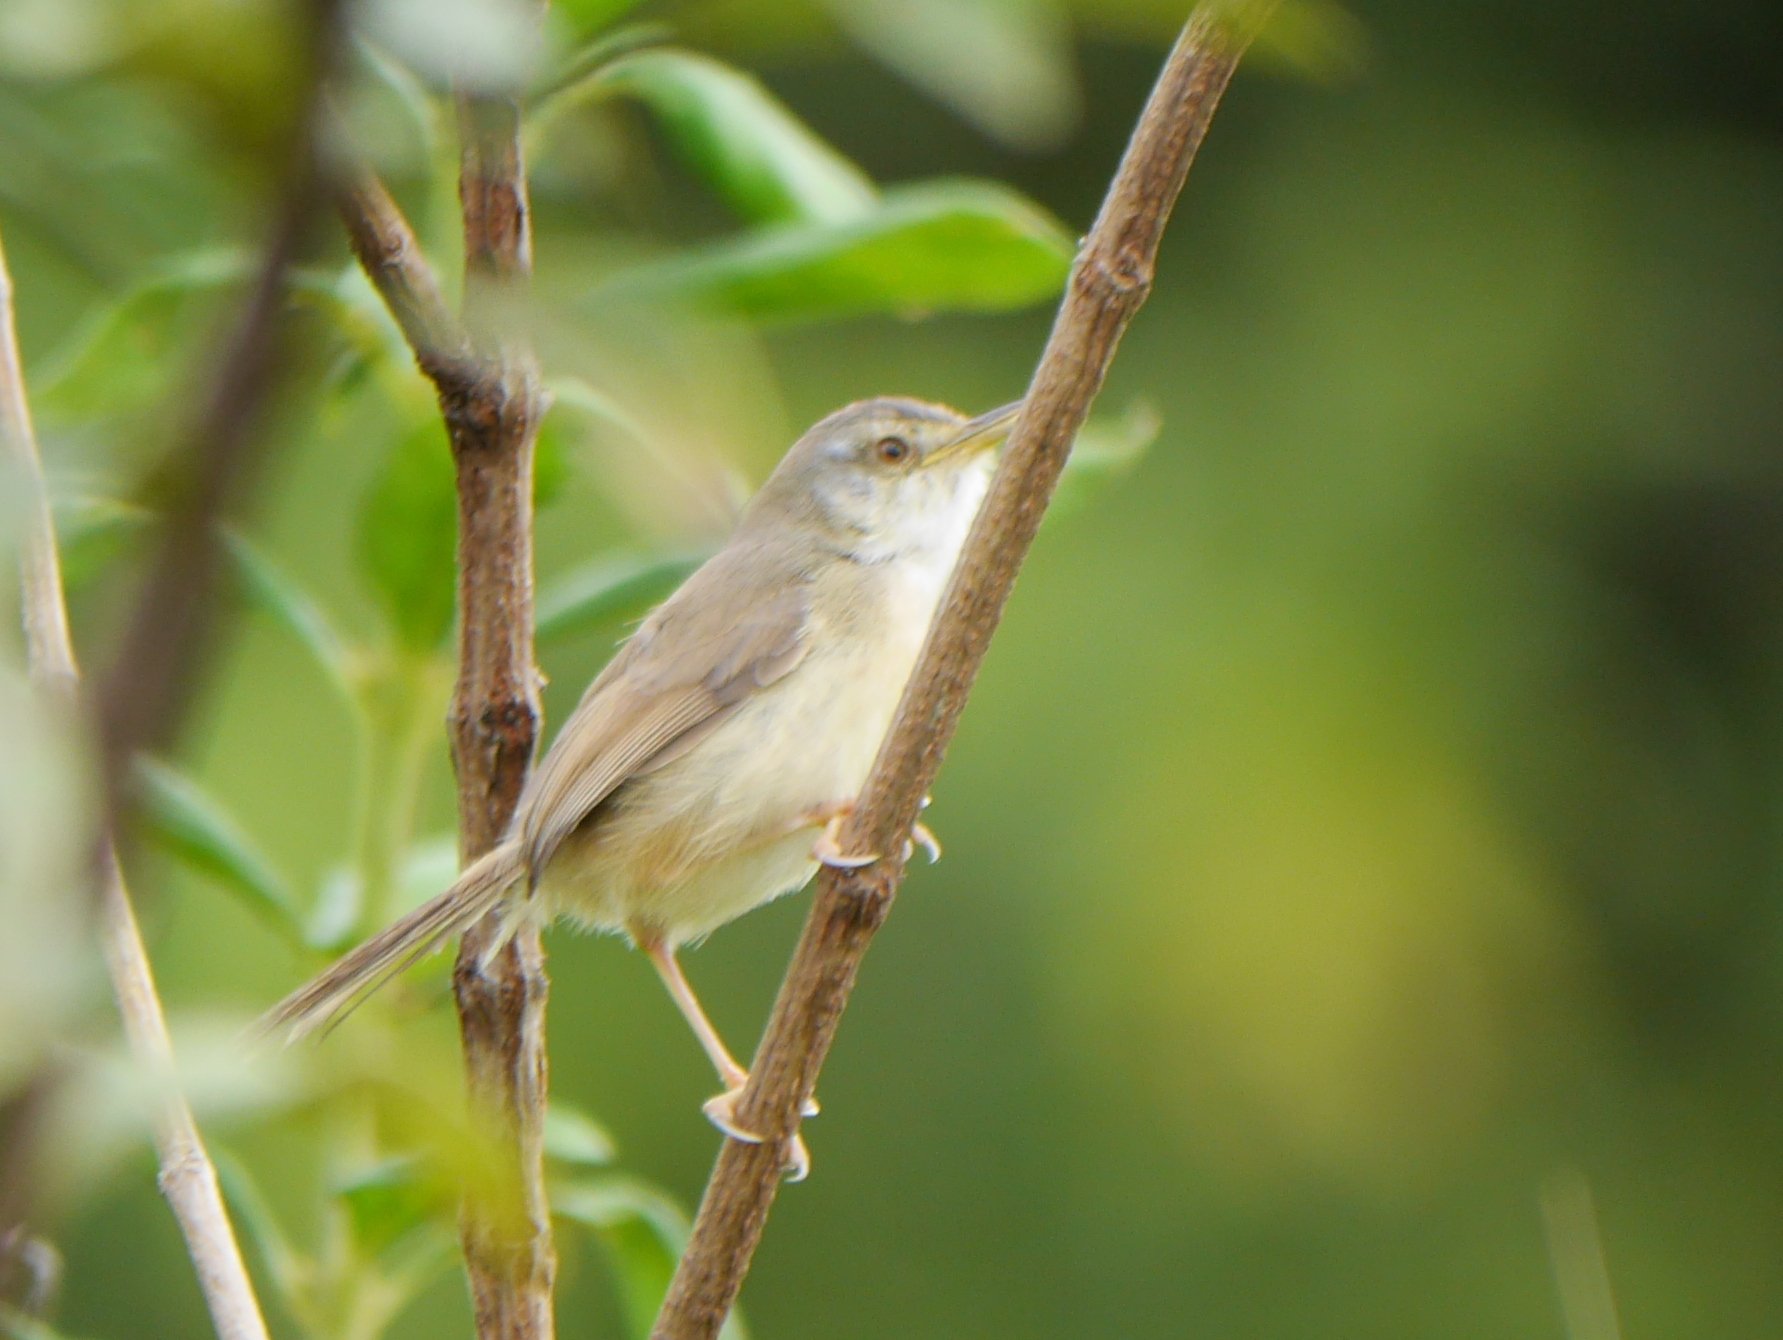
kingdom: Animalia
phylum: Chordata
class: Aves
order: Passeriformes
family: Cisticolidae
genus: Prinia
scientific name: Prinia subflava
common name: Tawny-flanked prinia
